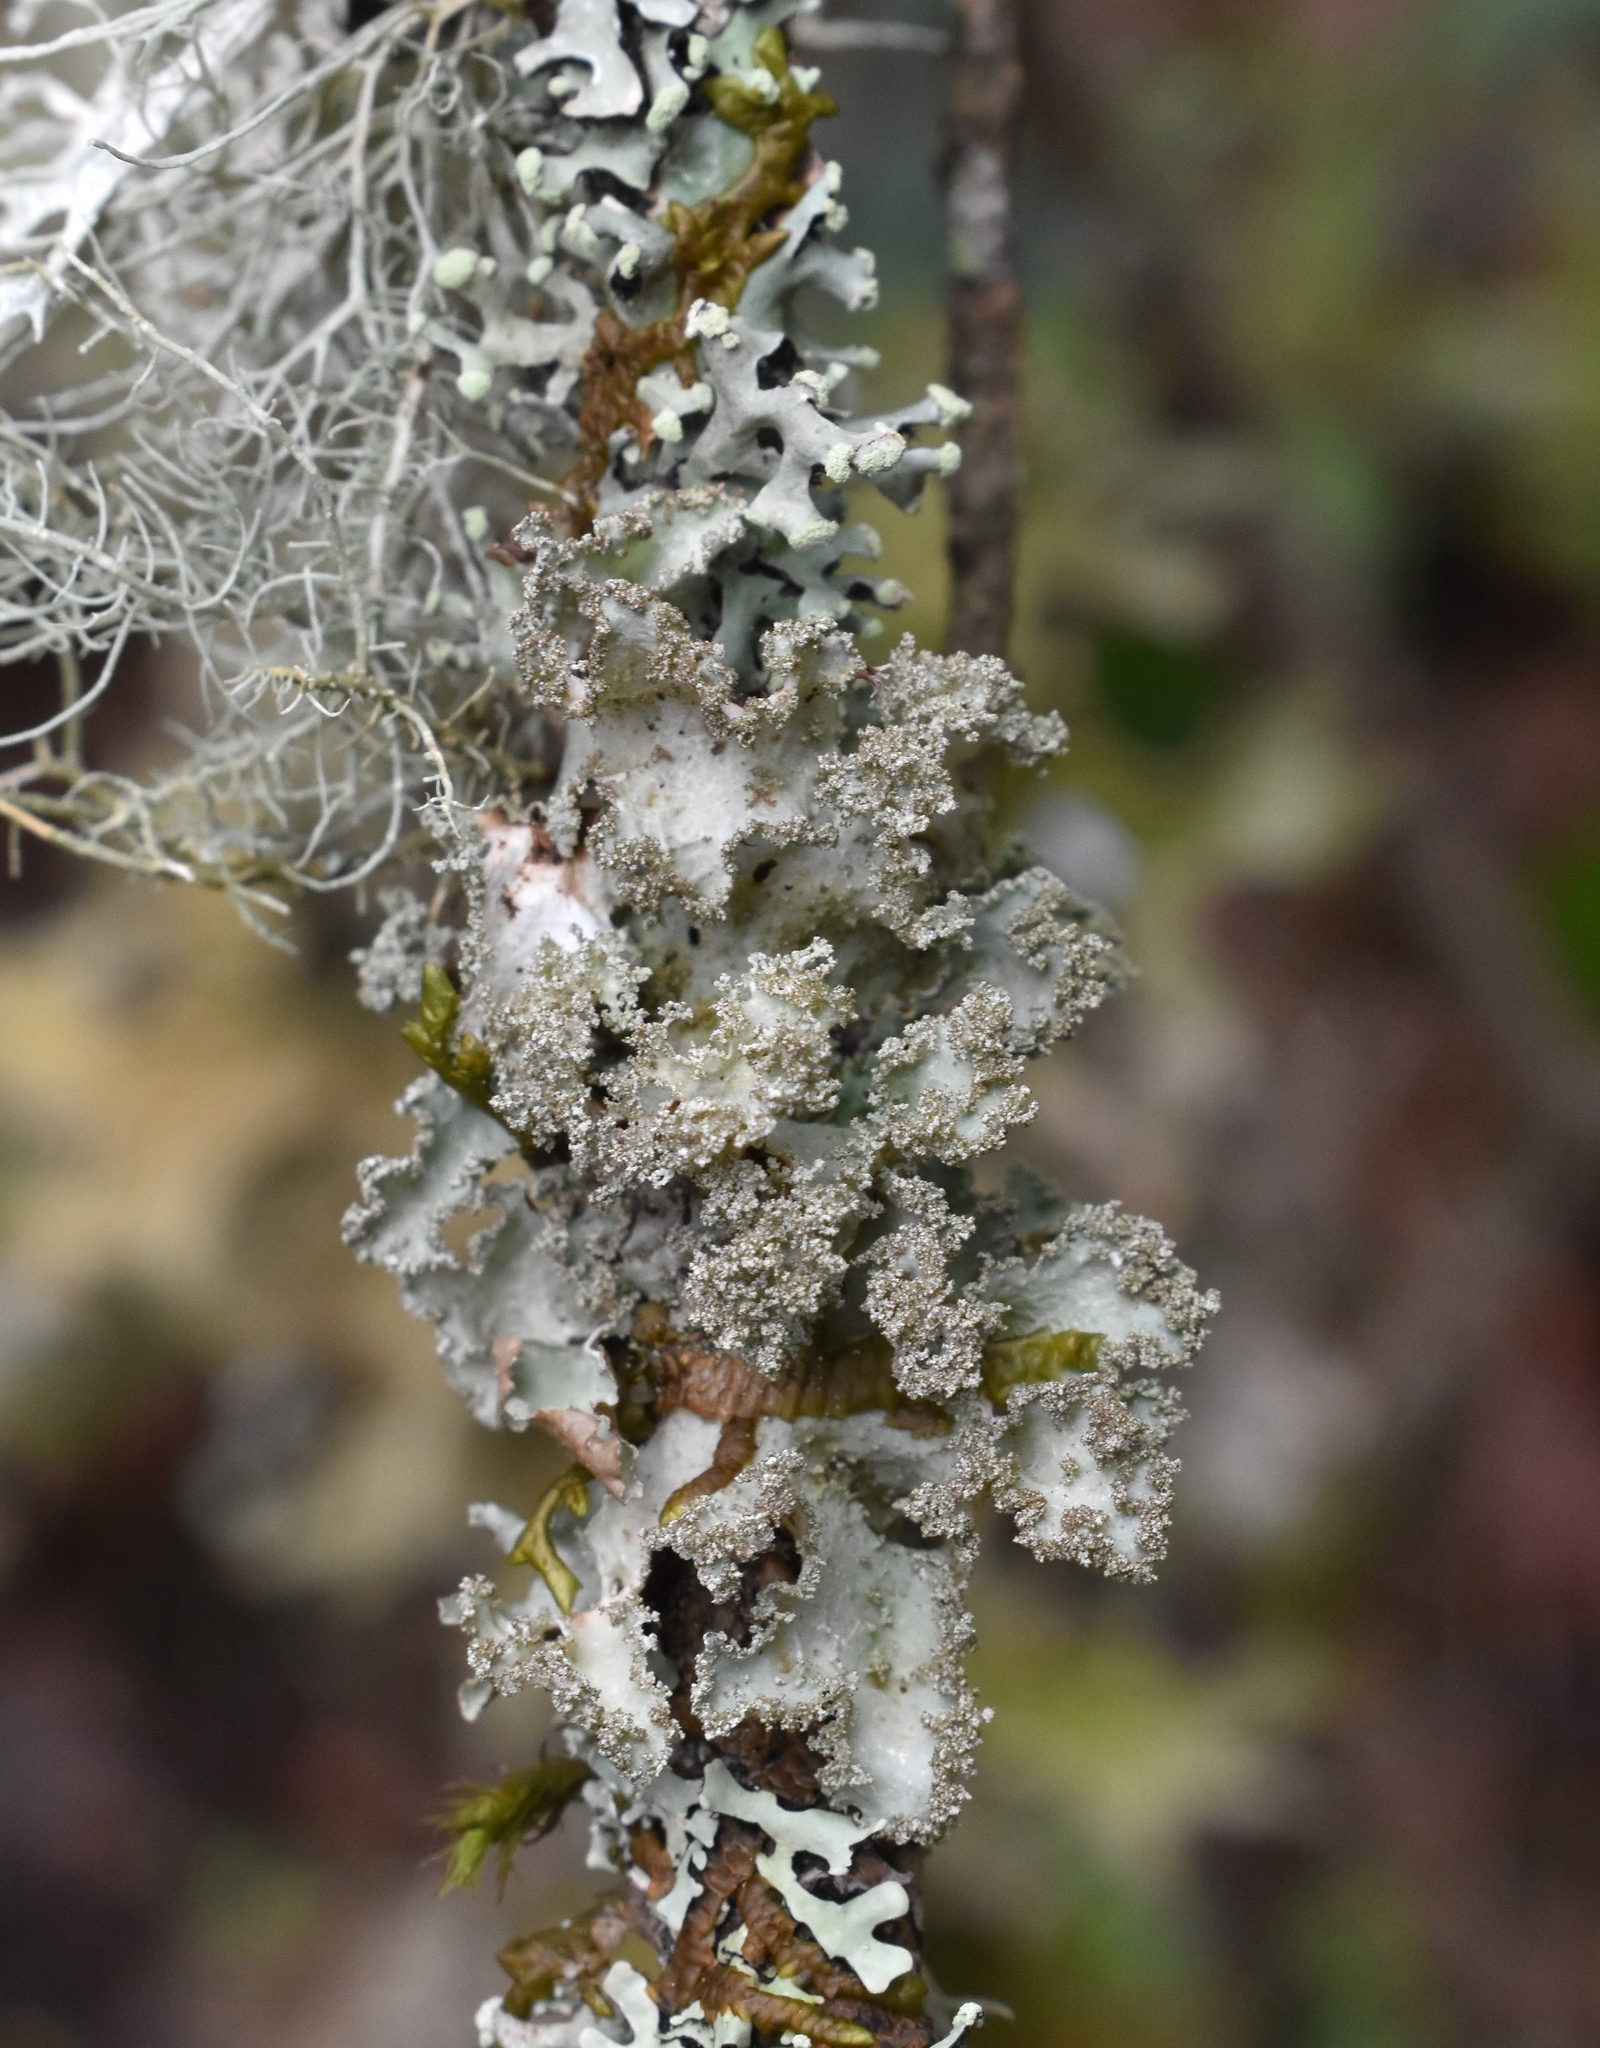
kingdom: Fungi
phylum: Ascomycota
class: Lecanoromycetes
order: Lecanorales
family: Parmeliaceae
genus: Platismatia
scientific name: Platismatia glauca
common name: Varied rag lichen
